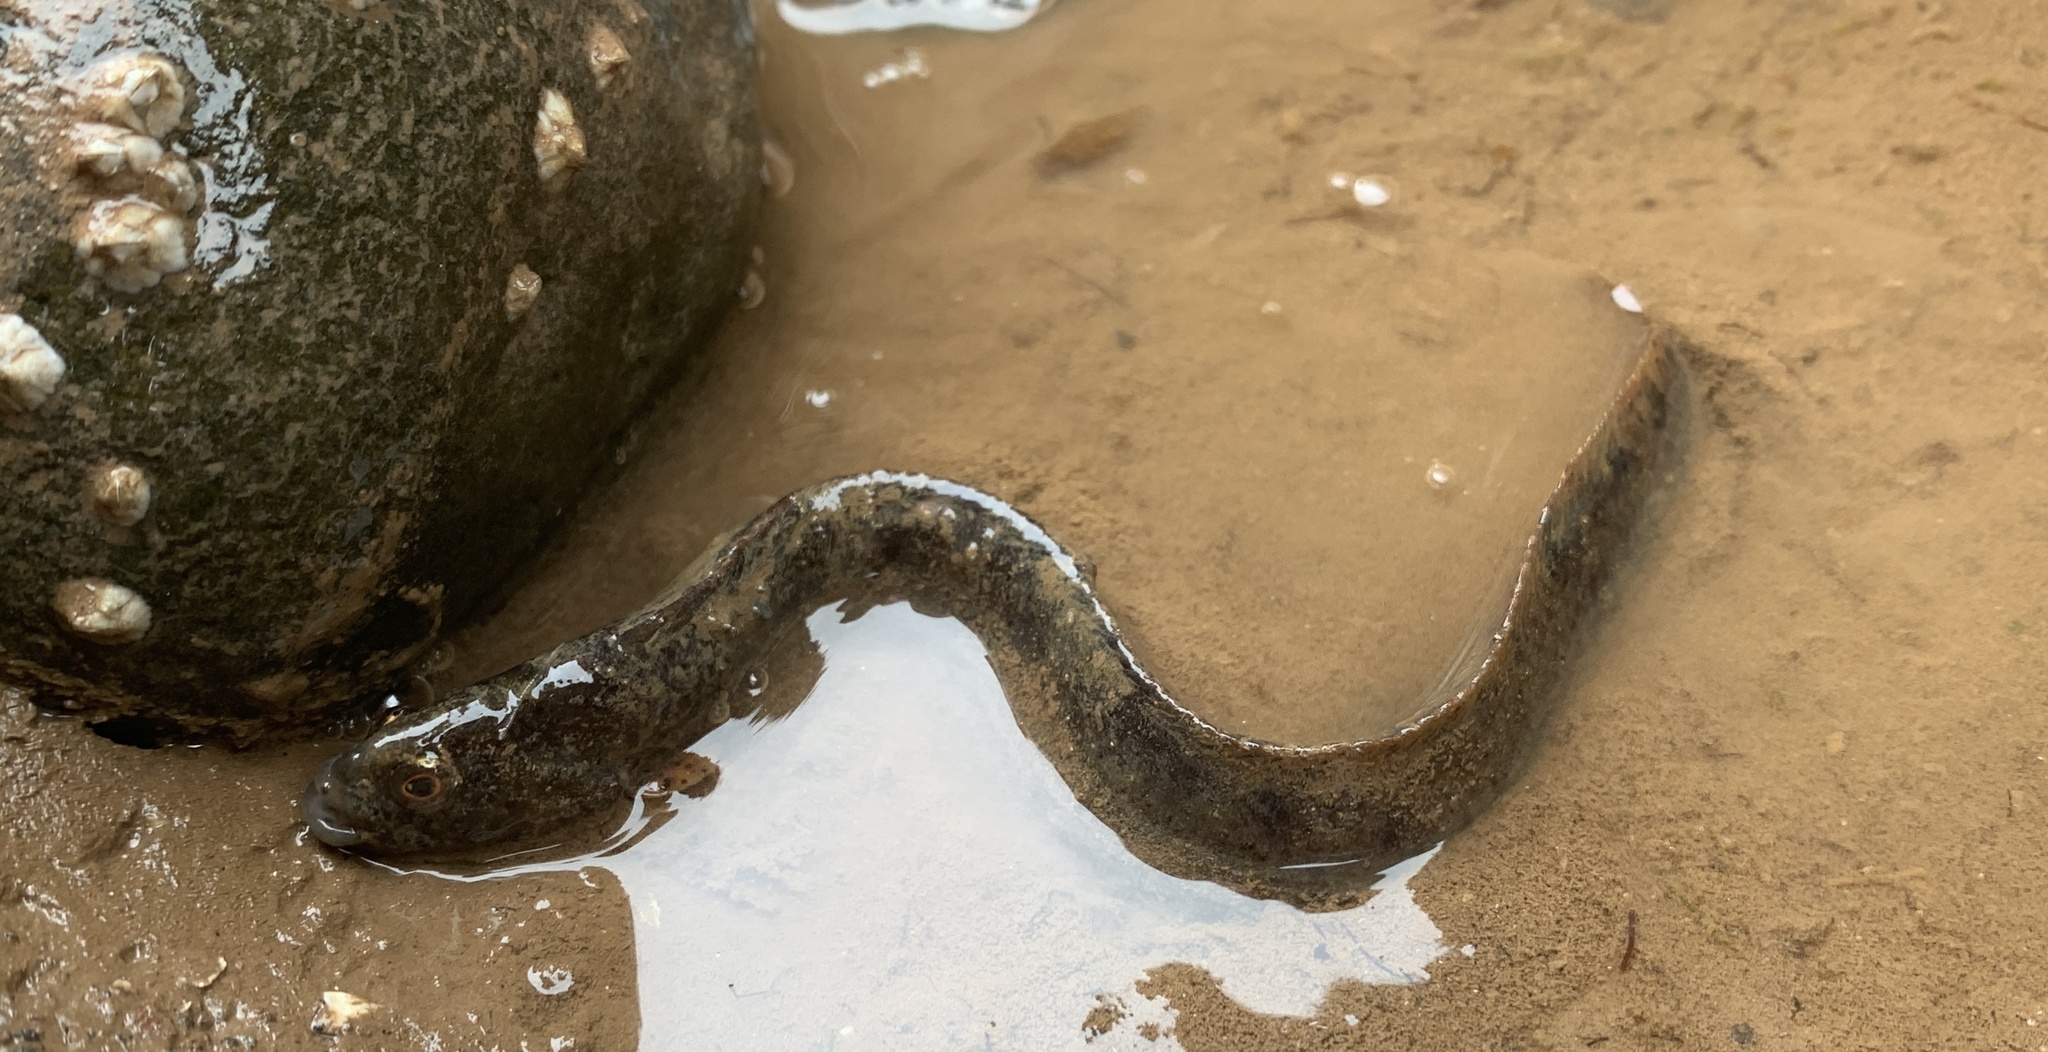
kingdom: Animalia
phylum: Chordata
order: Perciformes
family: Pholidae
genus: Pholis
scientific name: Pholis gunnellus
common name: Butterfish
